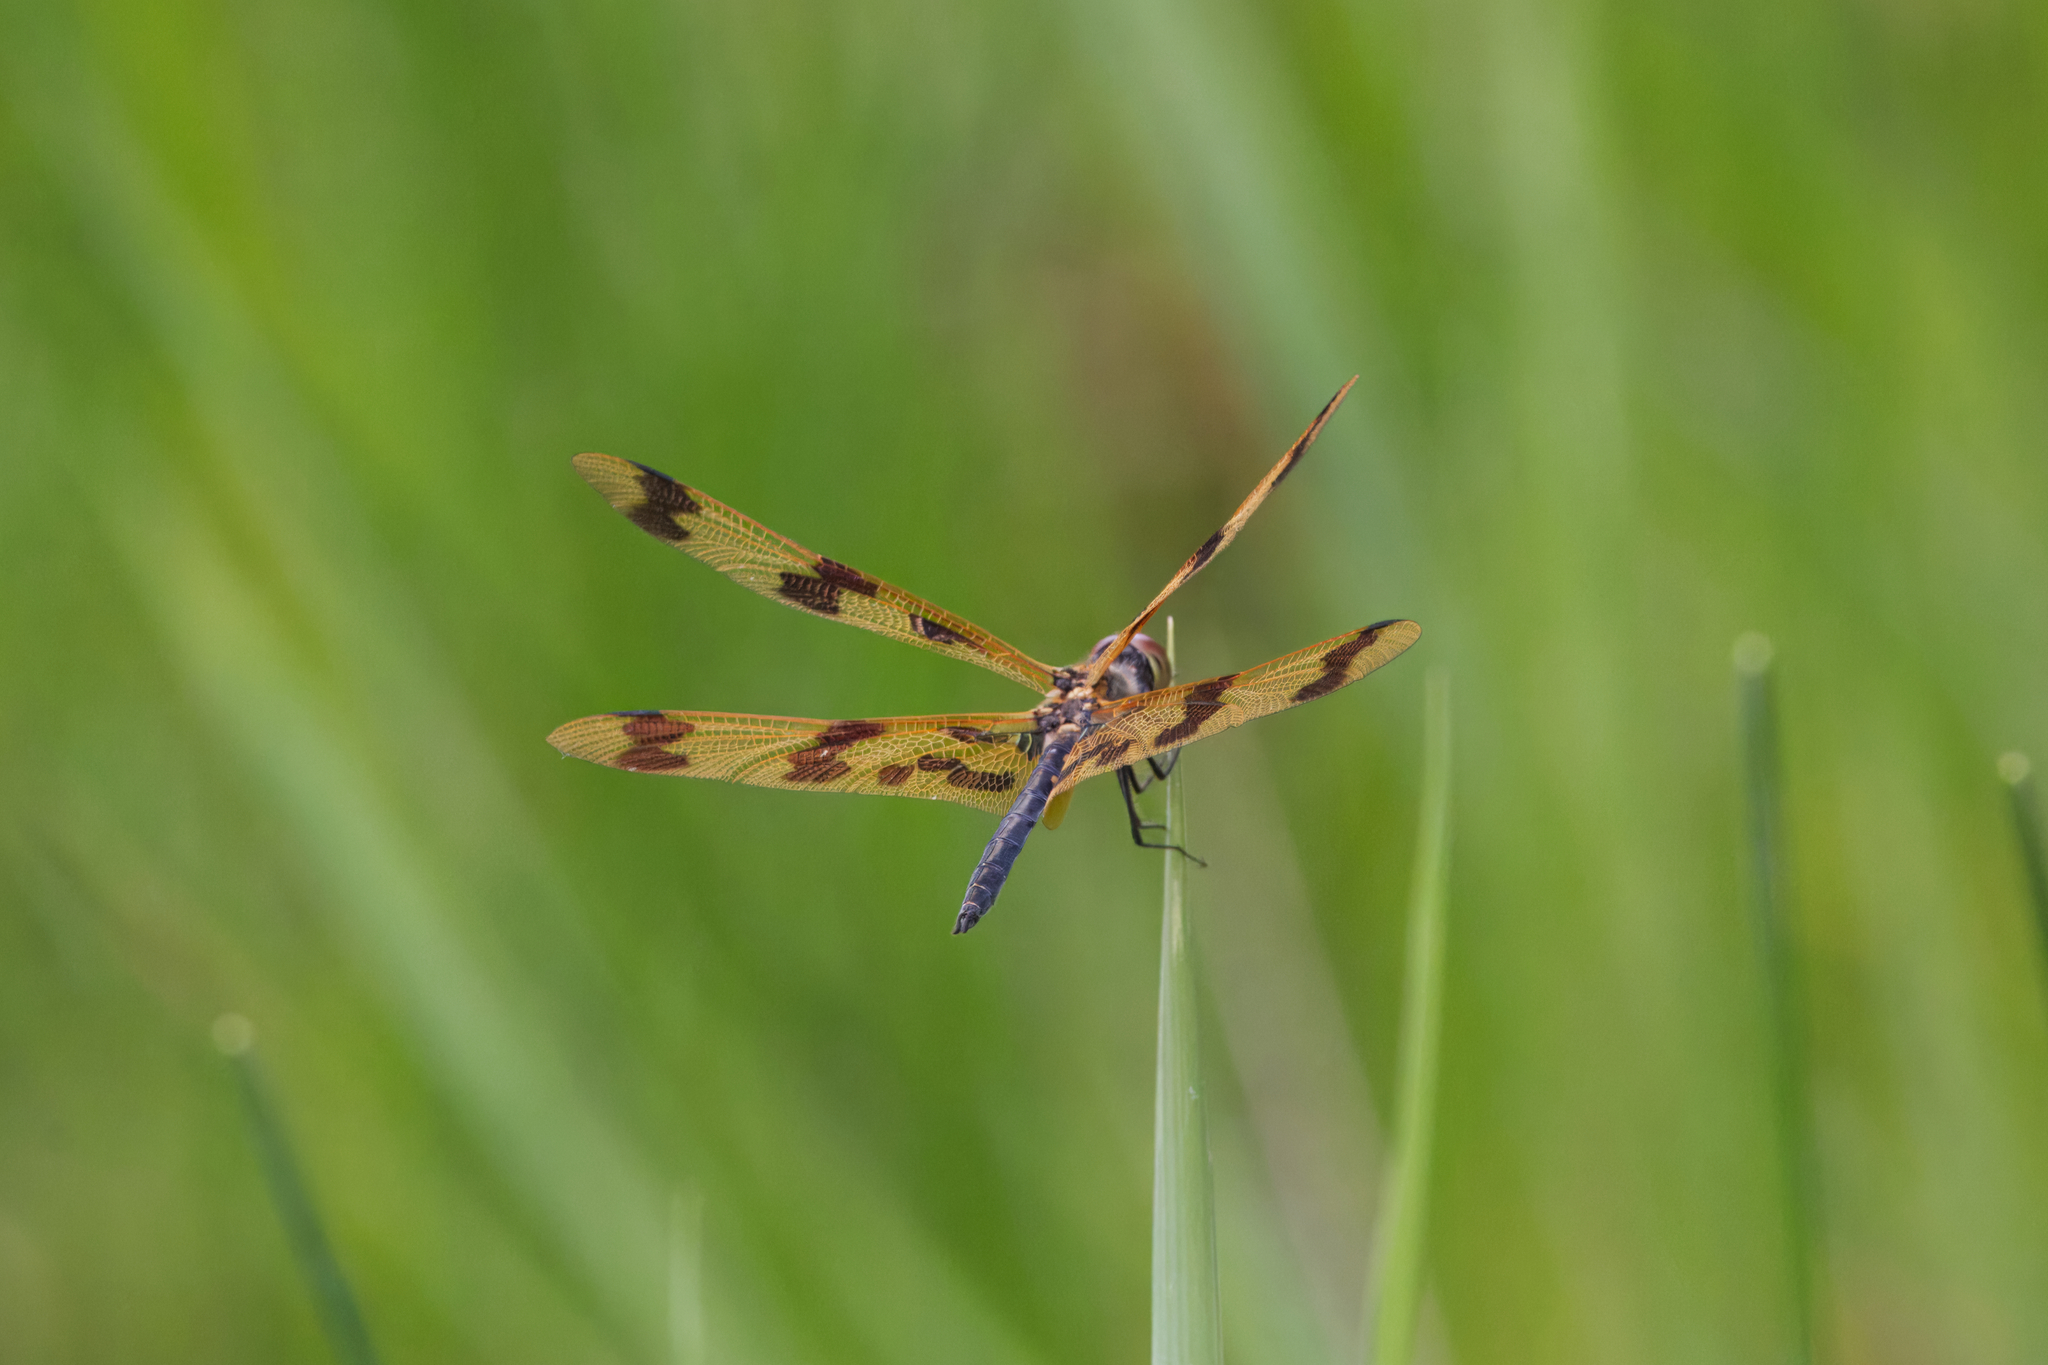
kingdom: Animalia
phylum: Arthropoda
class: Insecta
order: Odonata
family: Libellulidae
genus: Rhyothemis
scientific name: Rhyothemis graphiptera
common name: Graphic flutterer
